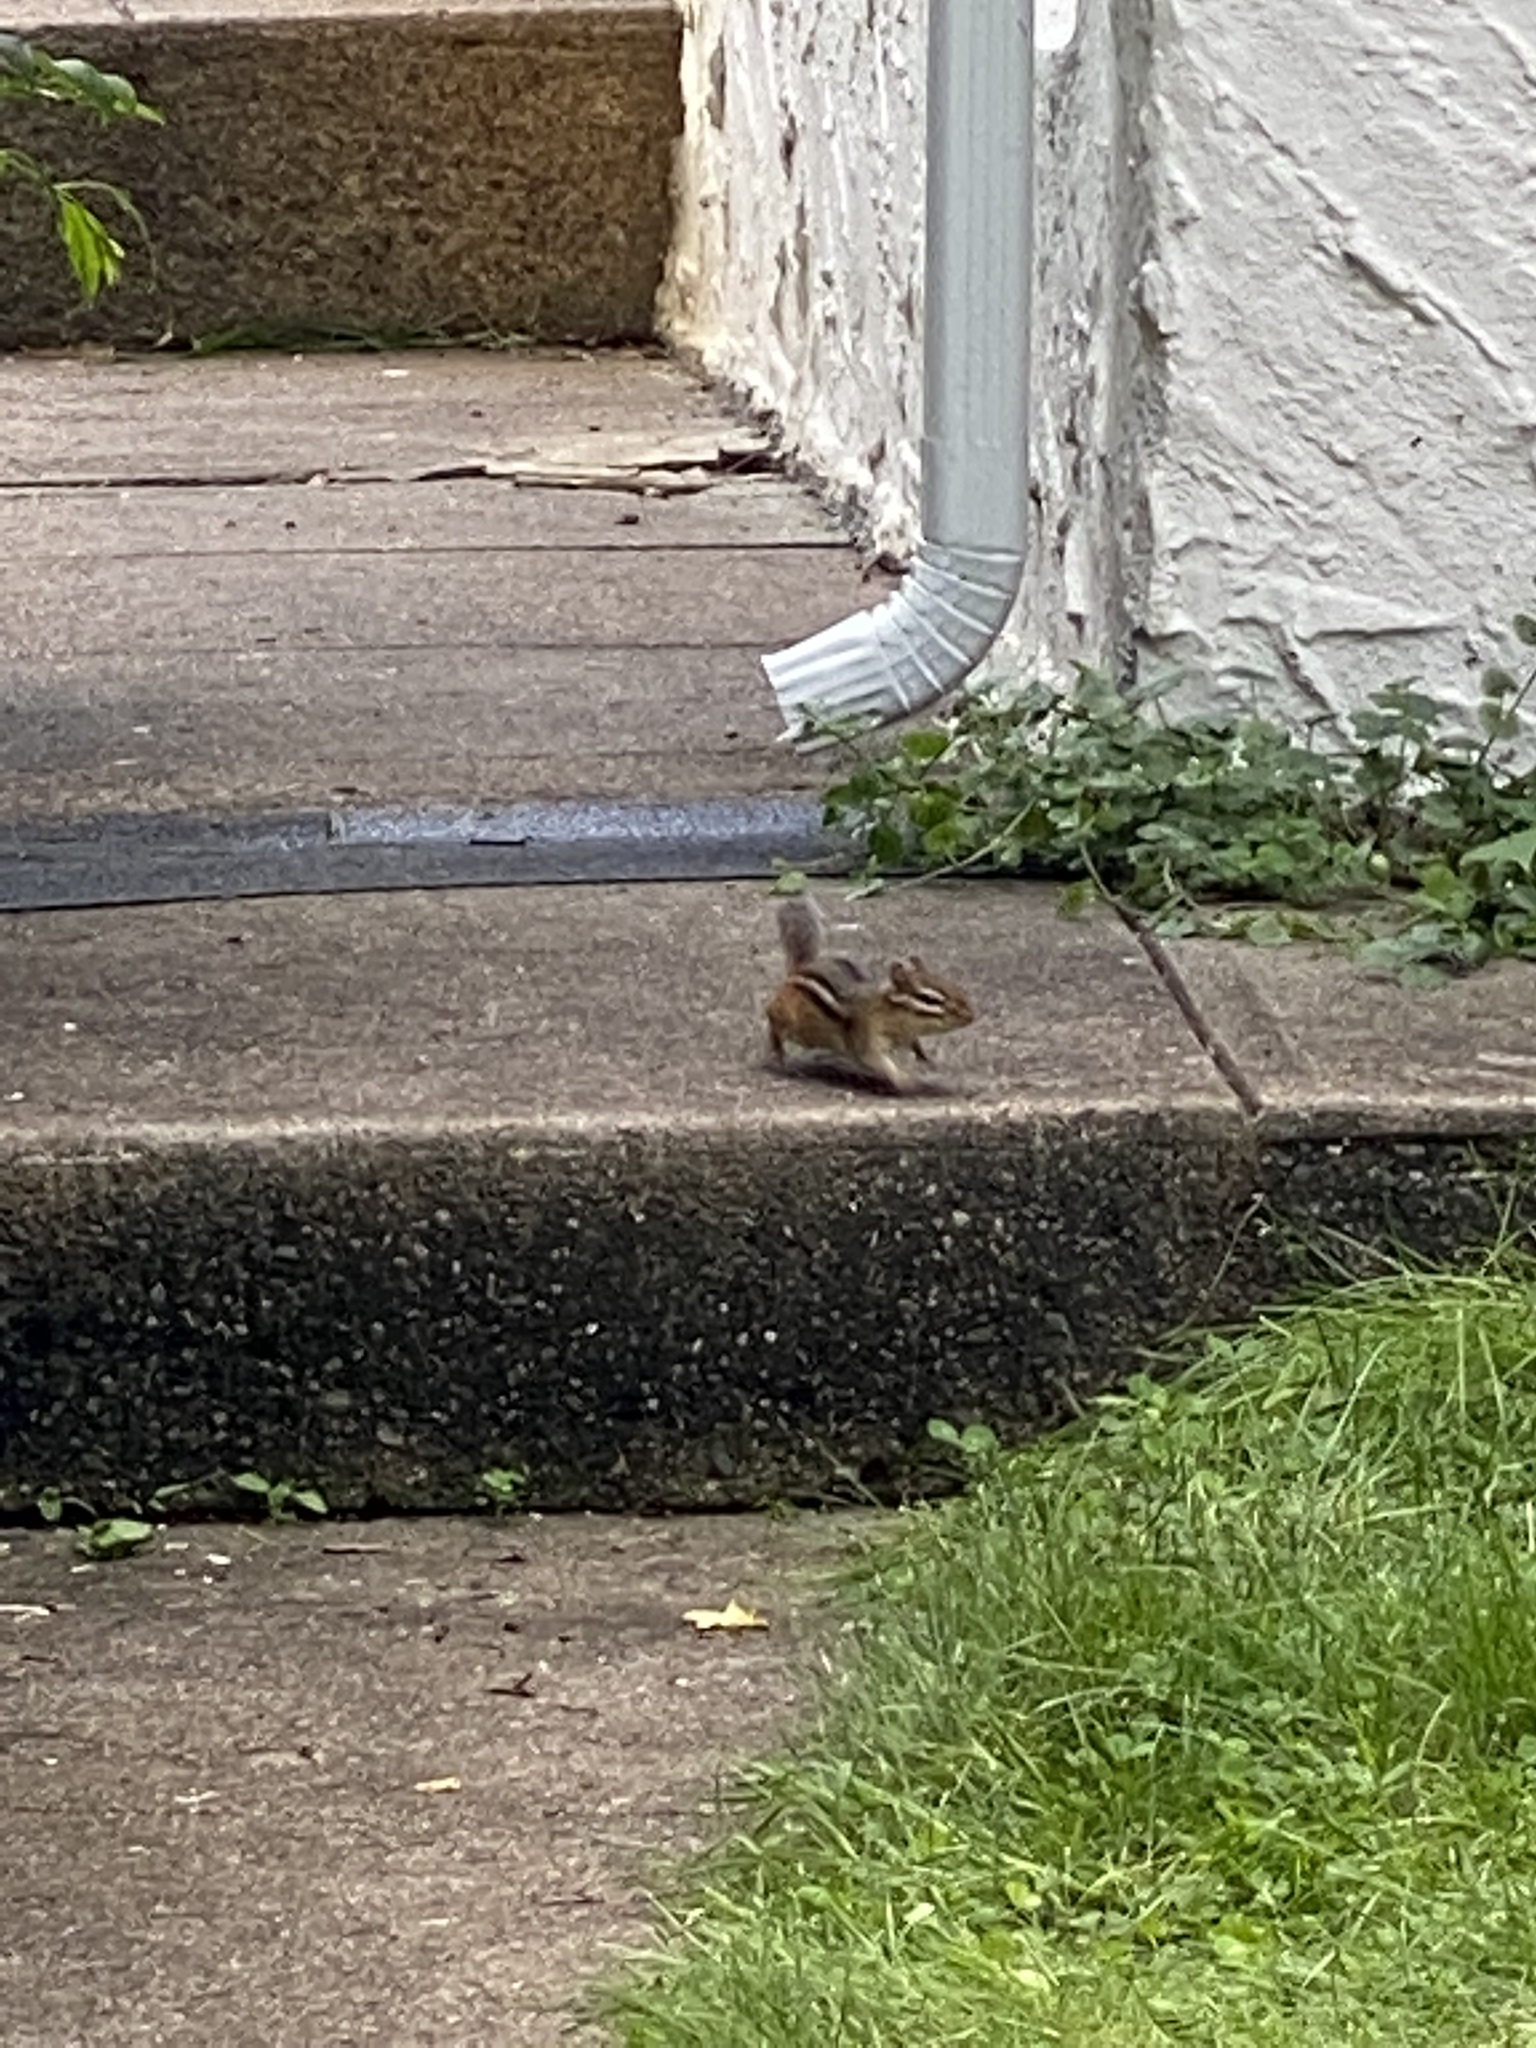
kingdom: Animalia
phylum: Chordata
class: Mammalia
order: Rodentia
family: Sciuridae
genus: Tamias
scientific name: Tamias striatus
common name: Eastern chipmunk
